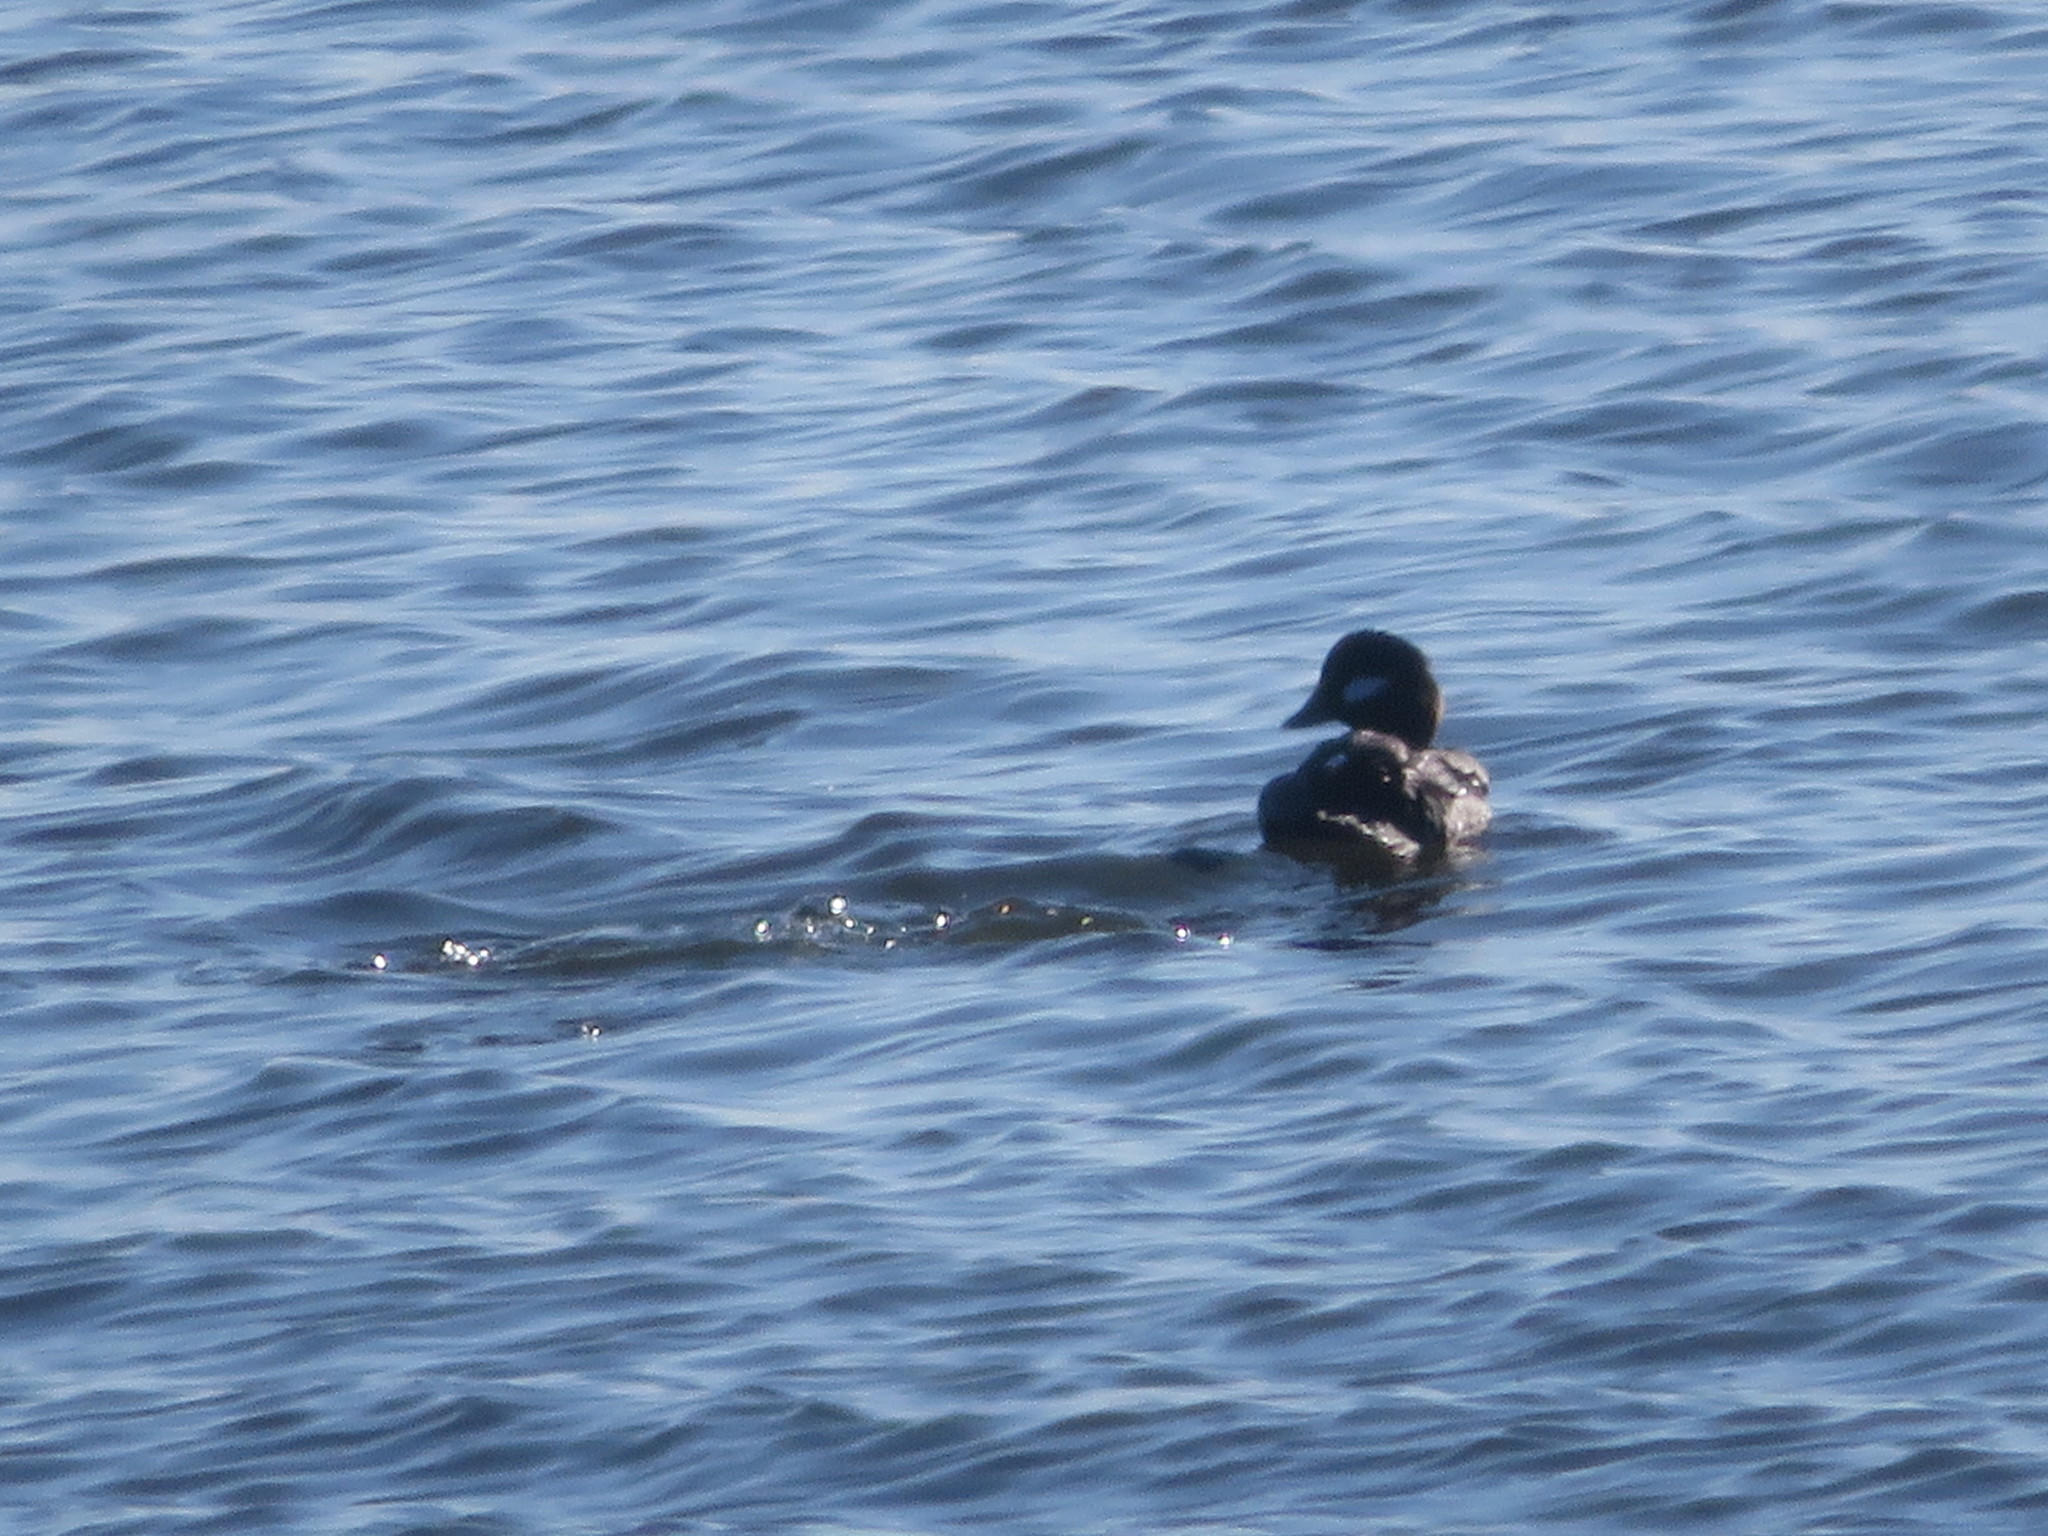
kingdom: Animalia
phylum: Chordata
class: Aves
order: Anseriformes
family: Anatidae
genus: Bucephala
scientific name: Bucephala albeola
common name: Bufflehead
